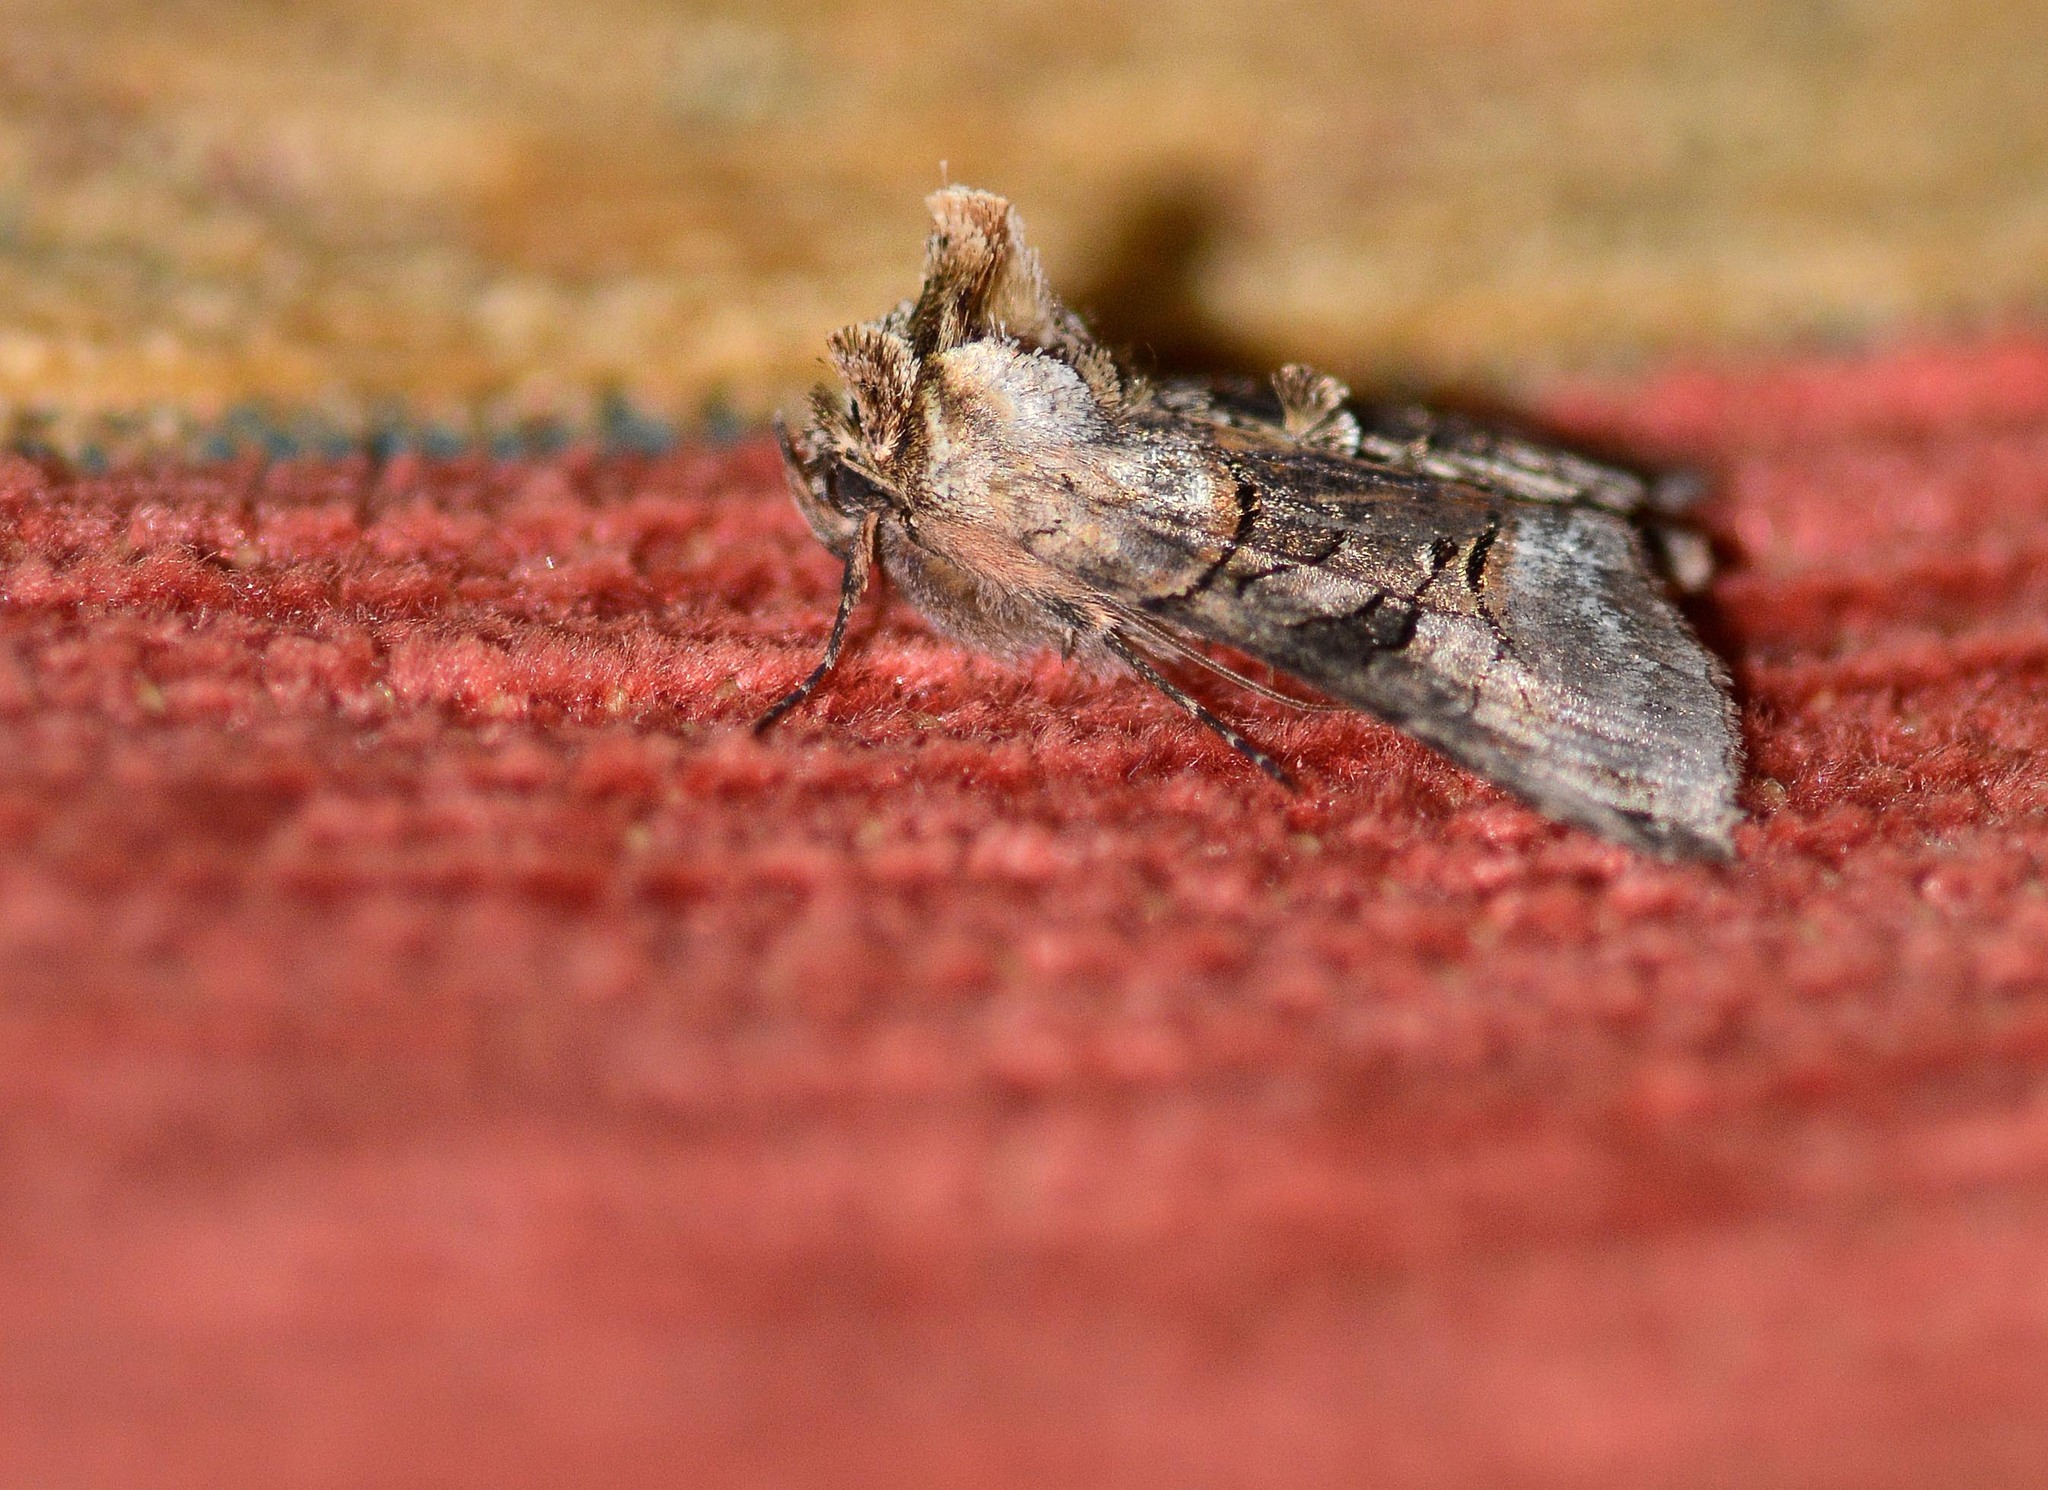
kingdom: Animalia
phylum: Arthropoda
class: Insecta
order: Lepidoptera
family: Noctuidae
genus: Abrostola
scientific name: Abrostola tripartita
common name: Spectacle
